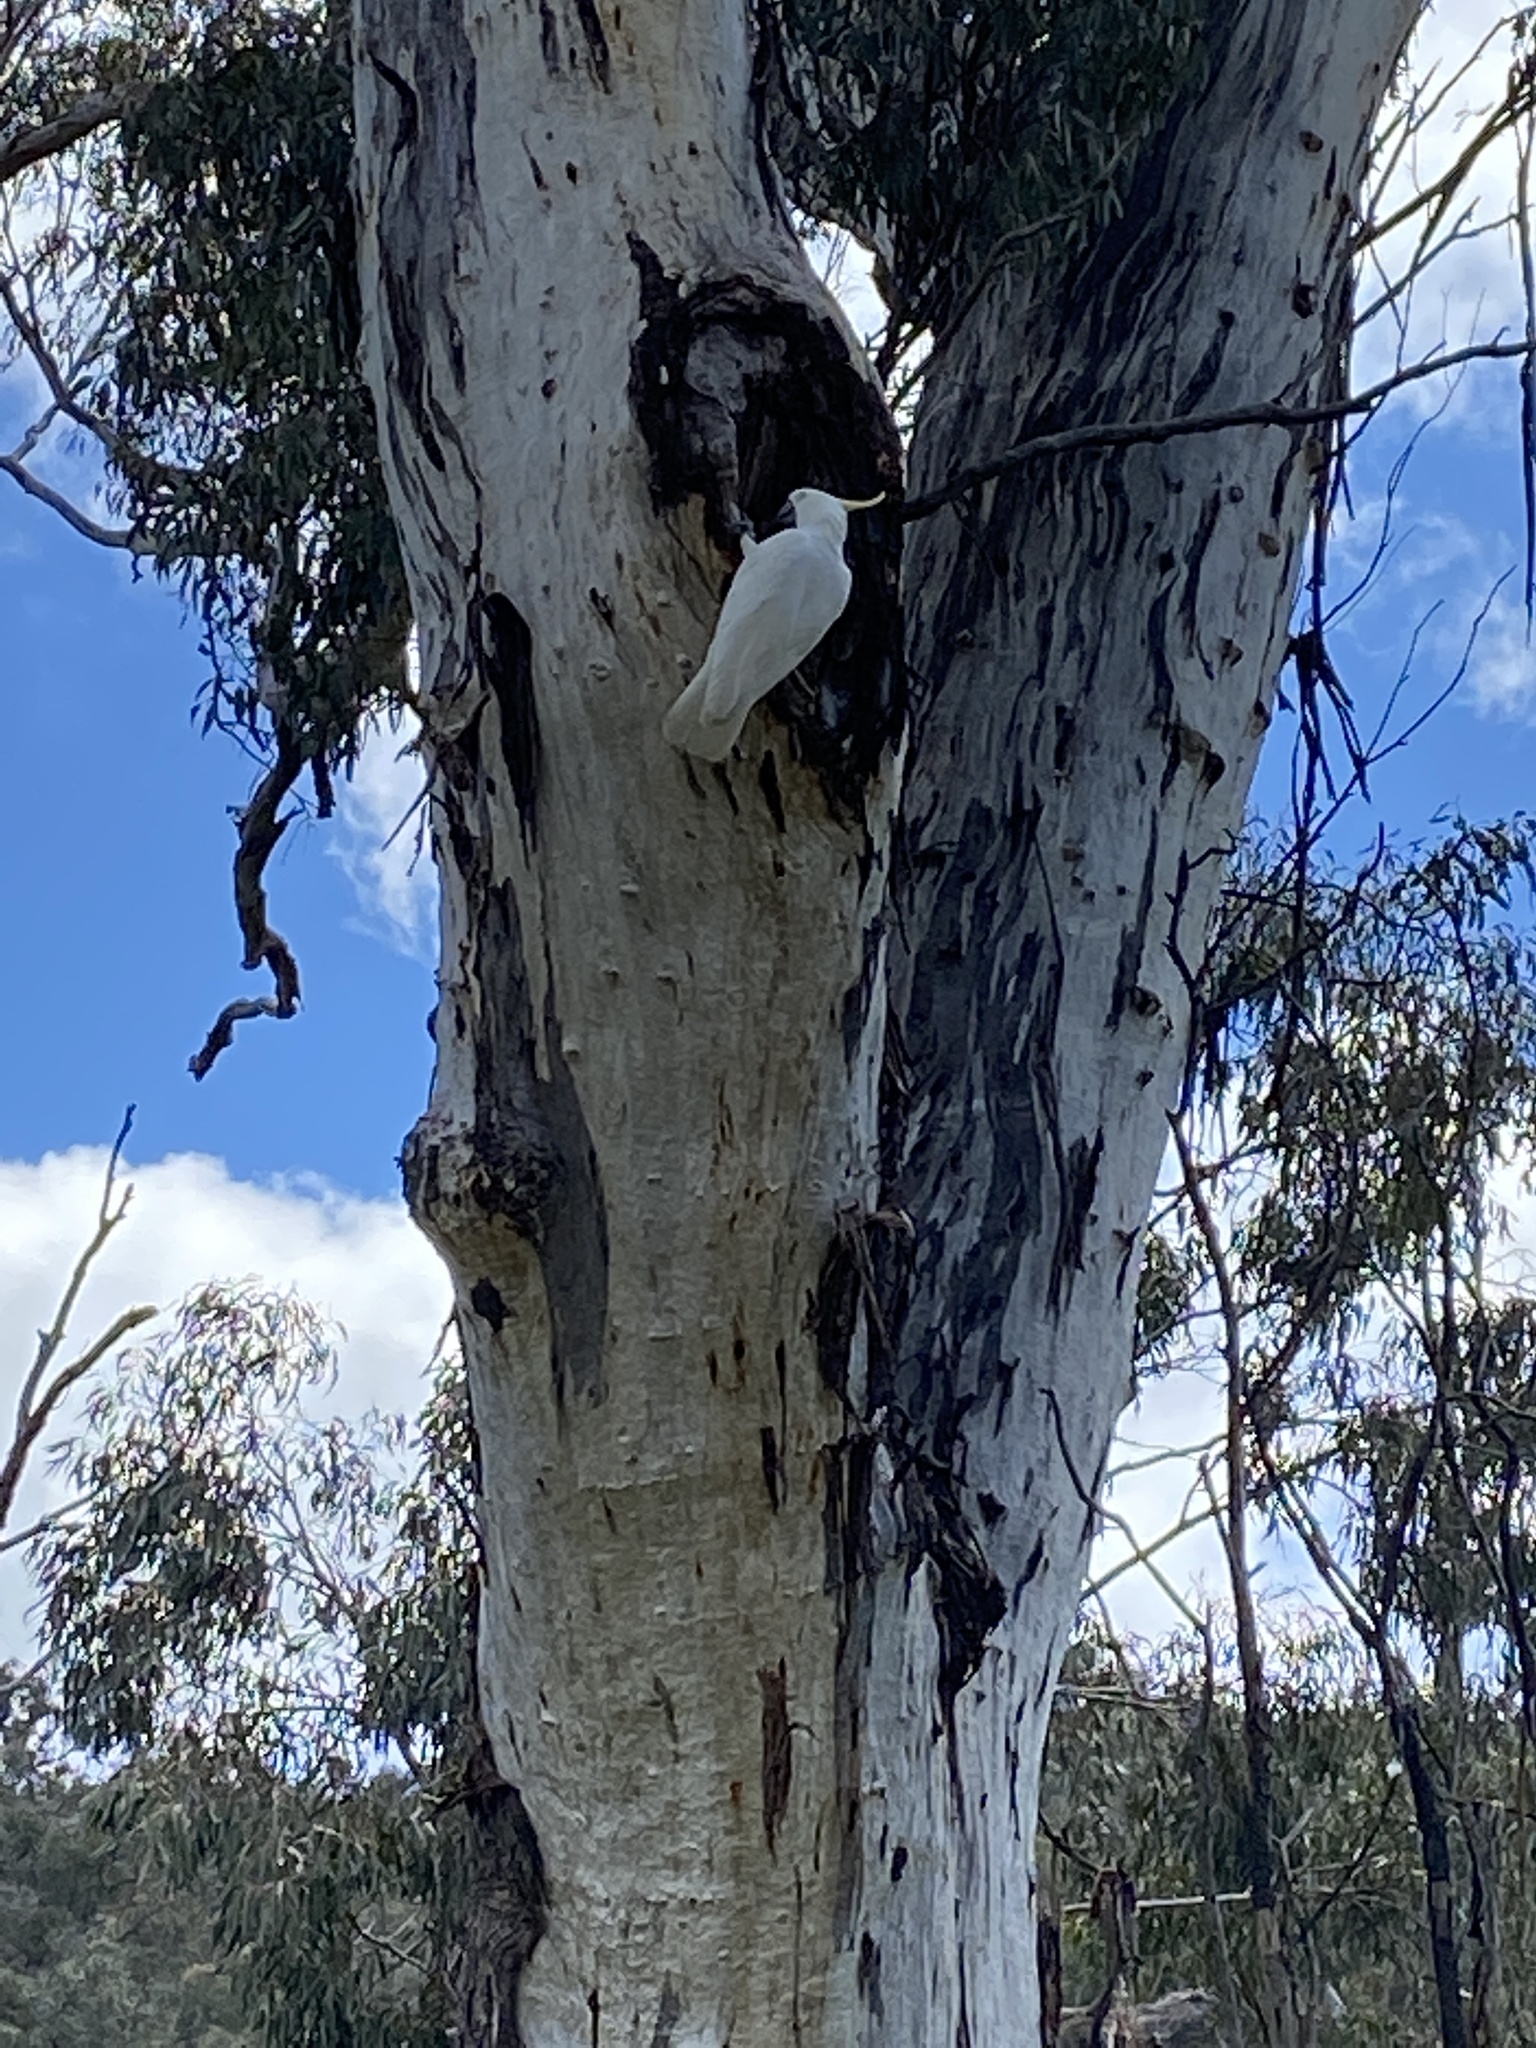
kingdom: Animalia
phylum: Chordata
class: Aves
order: Psittaciformes
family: Psittacidae
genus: Cacatua
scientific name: Cacatua galerita
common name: Sulphur-crested cockatoo
